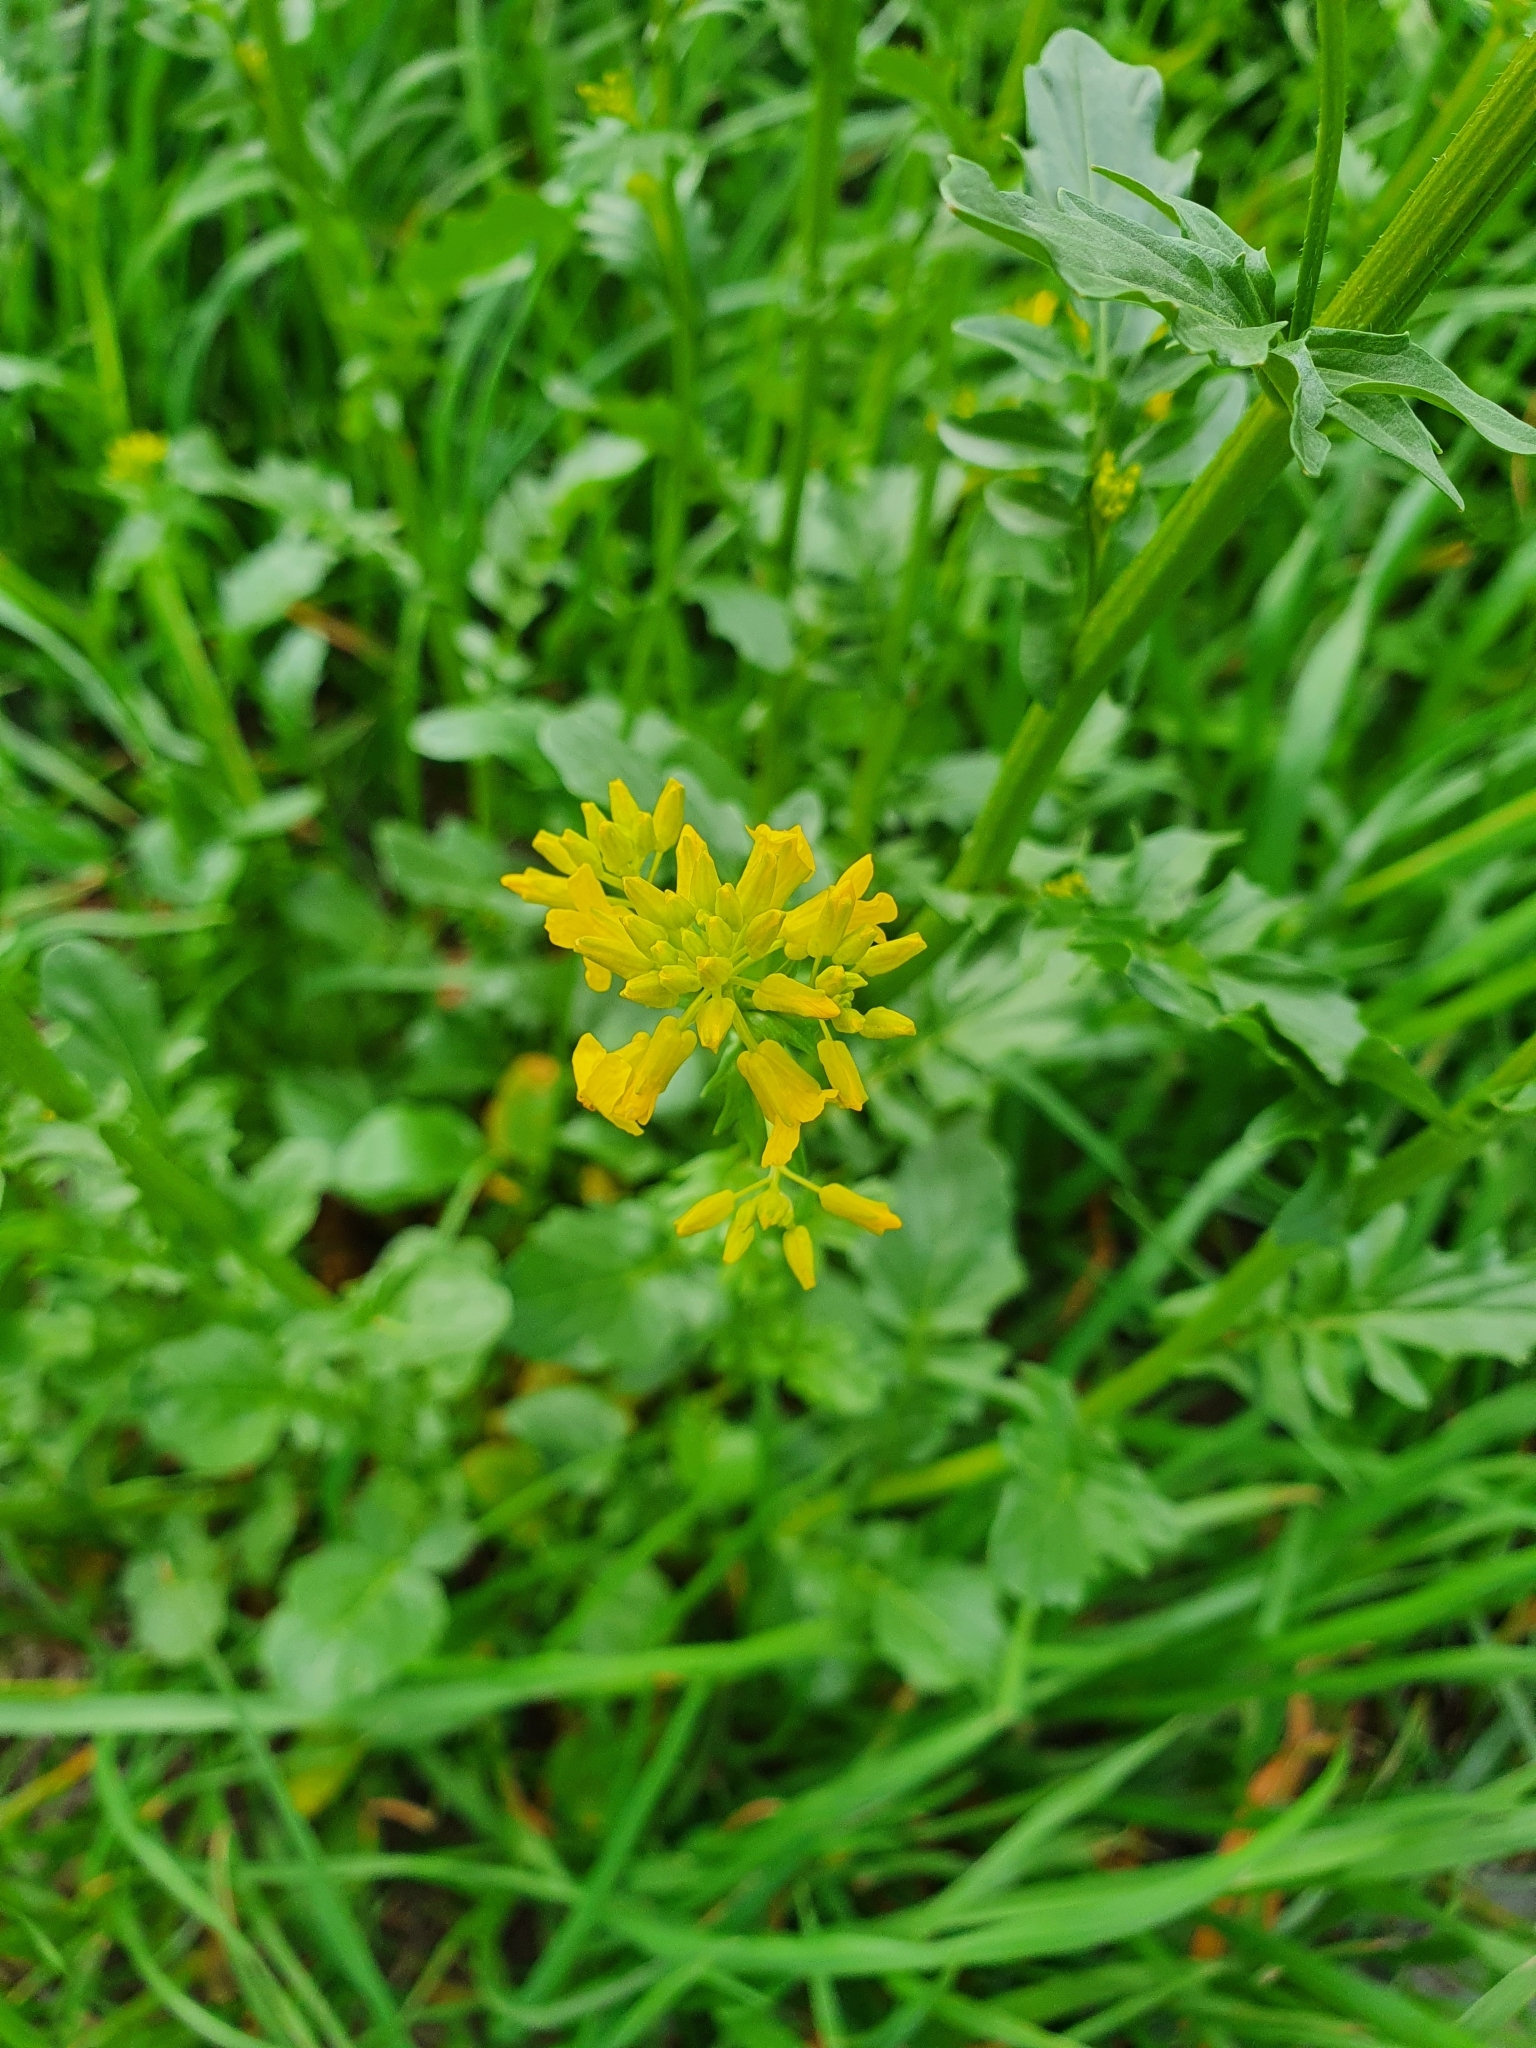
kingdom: Plantae
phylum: Tracheophyta
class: Magnoliopsida
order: Brassicales
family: Brassicaceae
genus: Barbarea
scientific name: Barbarea vulgaris
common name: Cressy-greens
